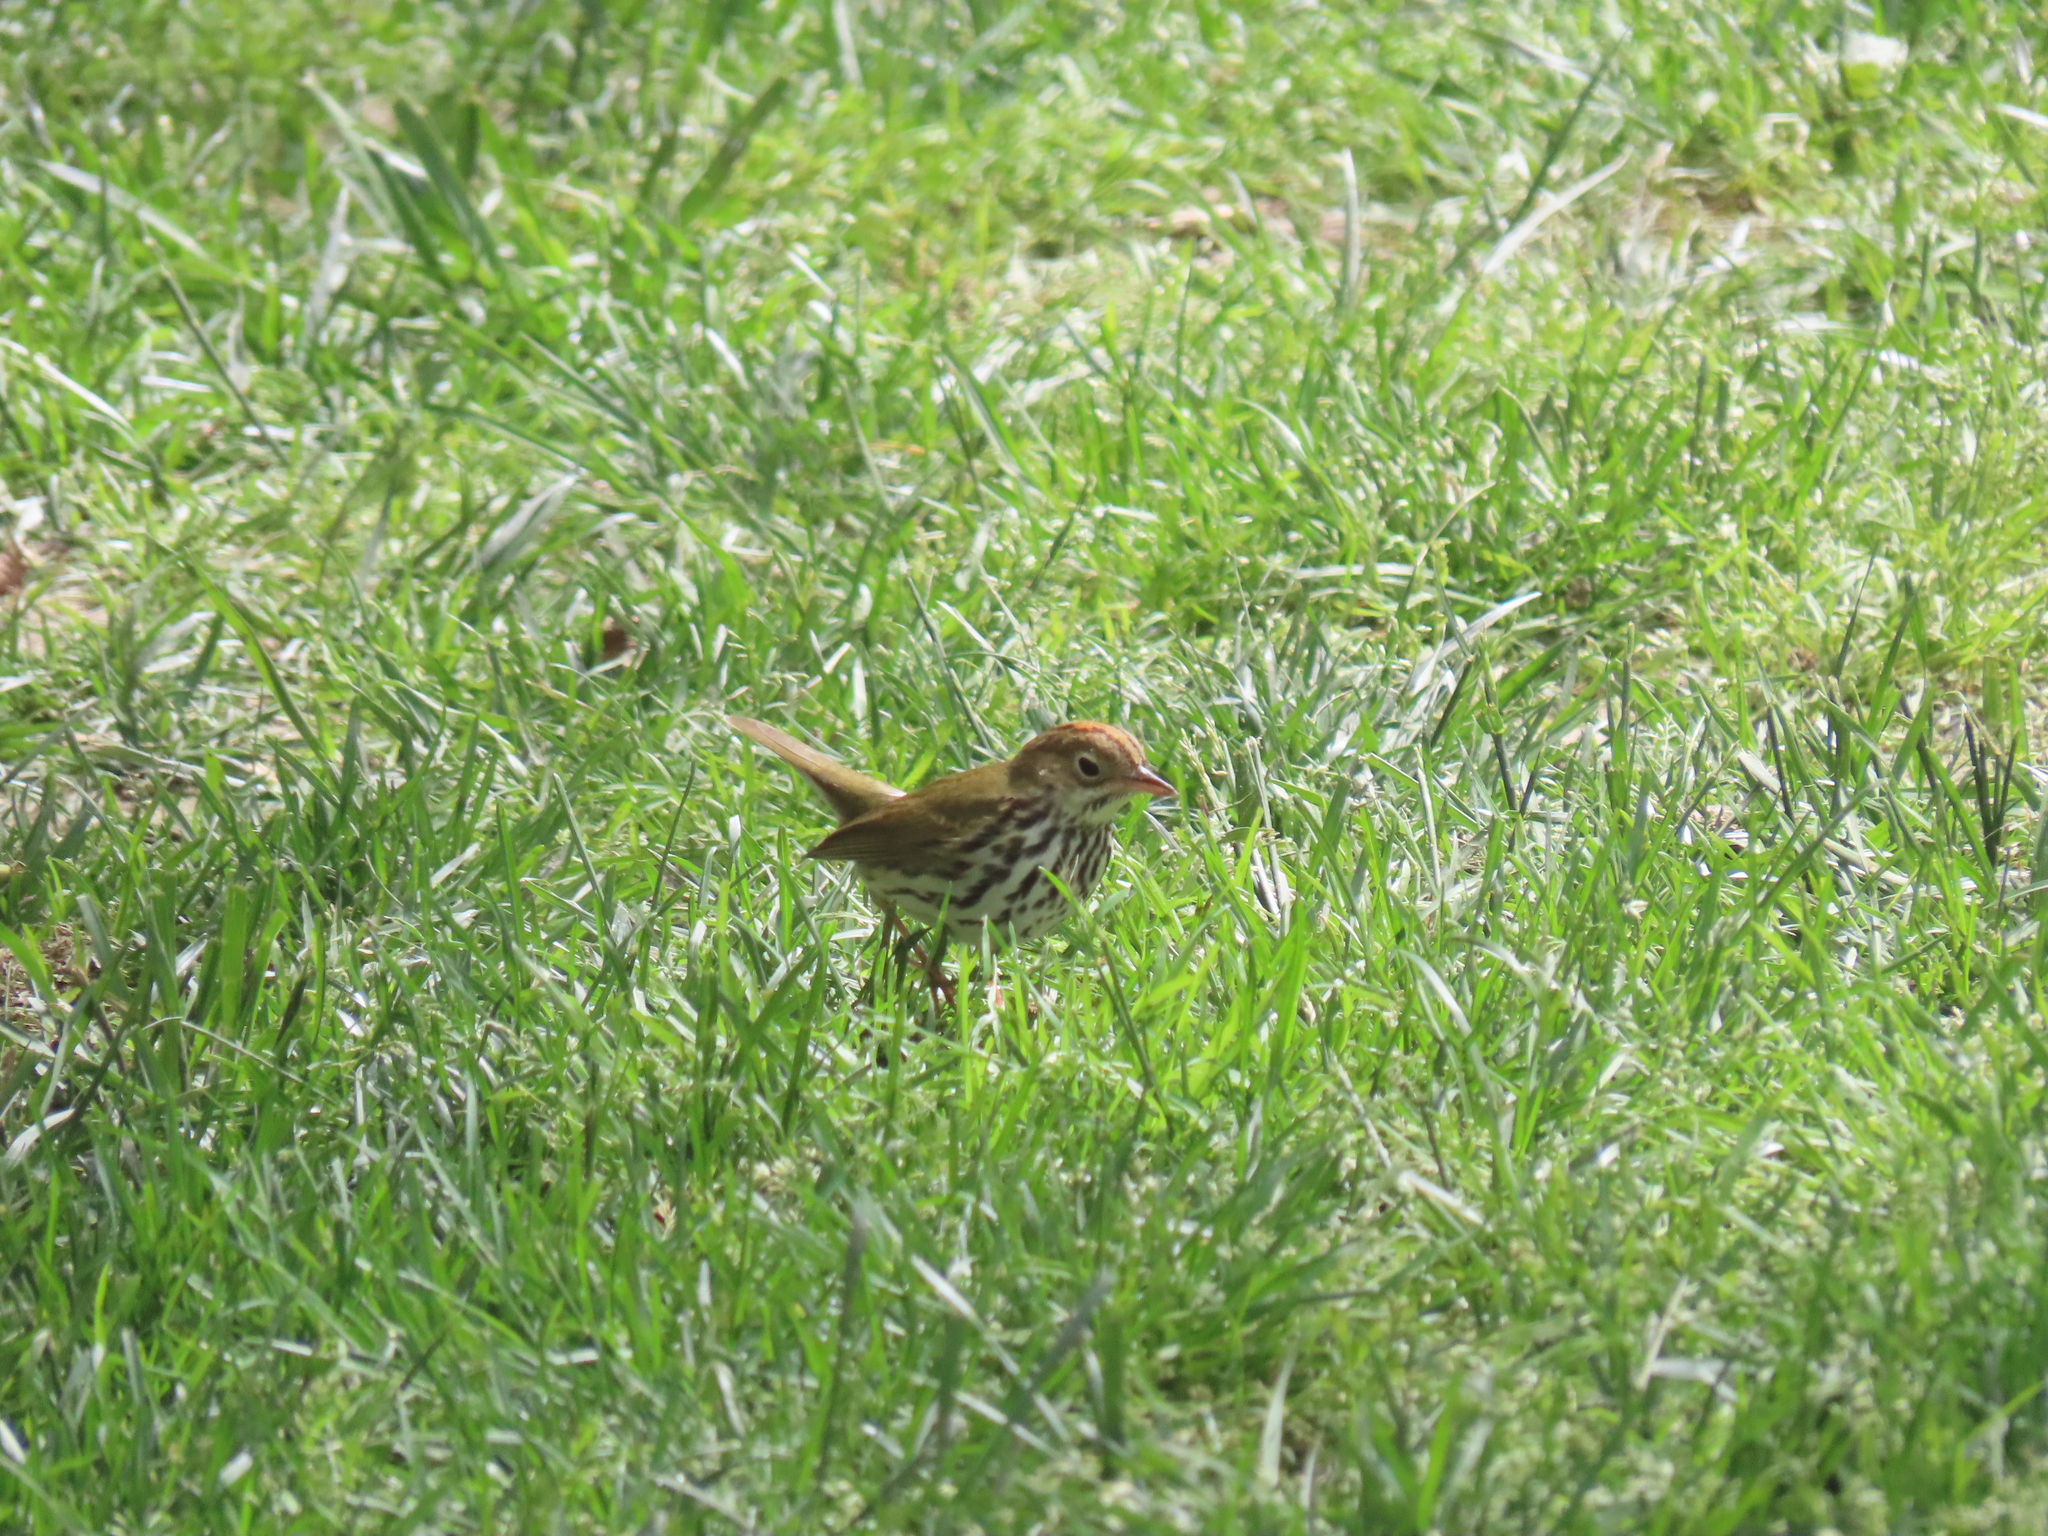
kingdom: Animalia
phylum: Chordata
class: Aves
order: Passeriformes
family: Parulidae
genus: Seiurus
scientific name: Seiurus aurocapilla
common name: Ovenbird
